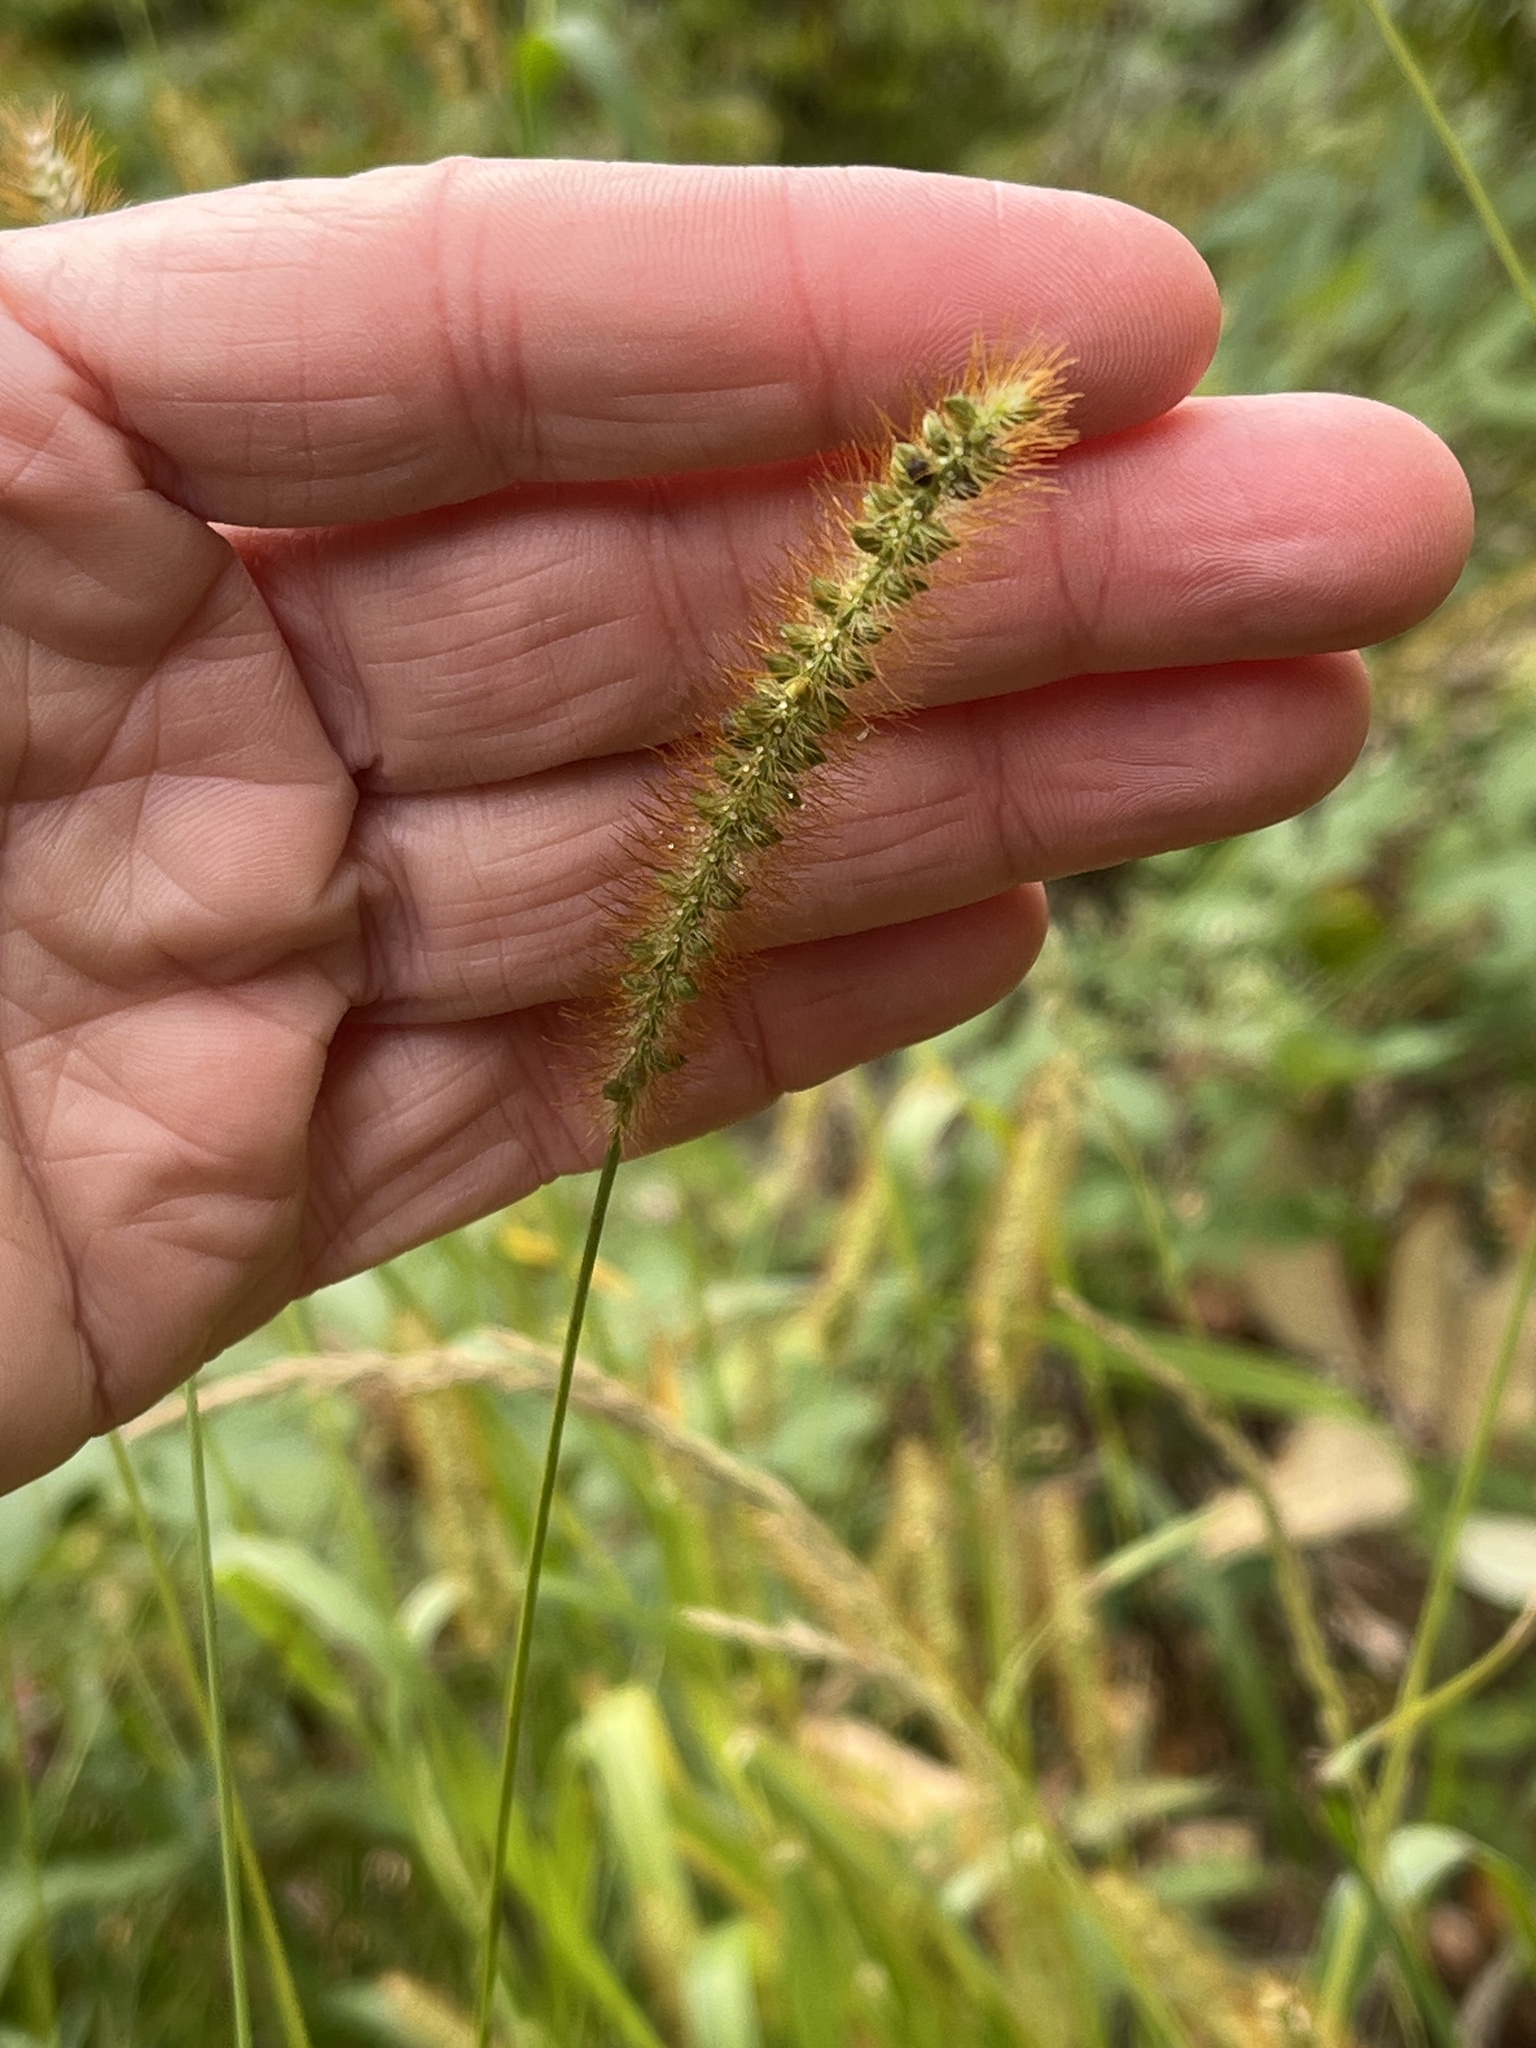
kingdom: Plantae
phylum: Tracheophyta
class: Liliopsida
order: Poales
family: Poaceae
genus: Setaria
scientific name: Setaria pumila
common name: Yellow bristle-grass
